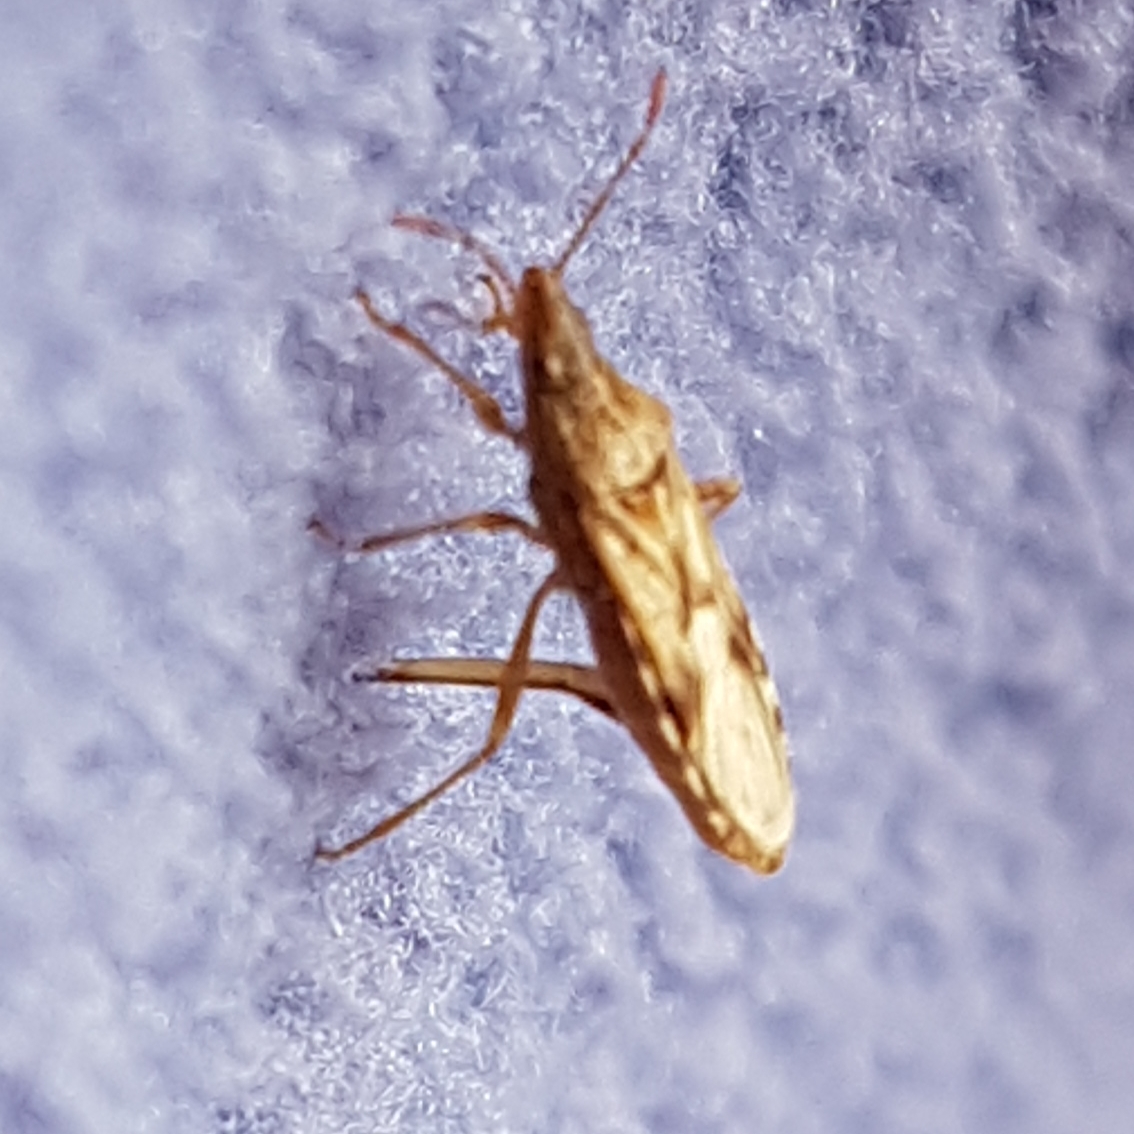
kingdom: Animalia
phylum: Arthropoda
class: Insecta
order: Hemiptera
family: Lygaeidae
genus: Belonochilus
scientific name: Belonochilus numenius
